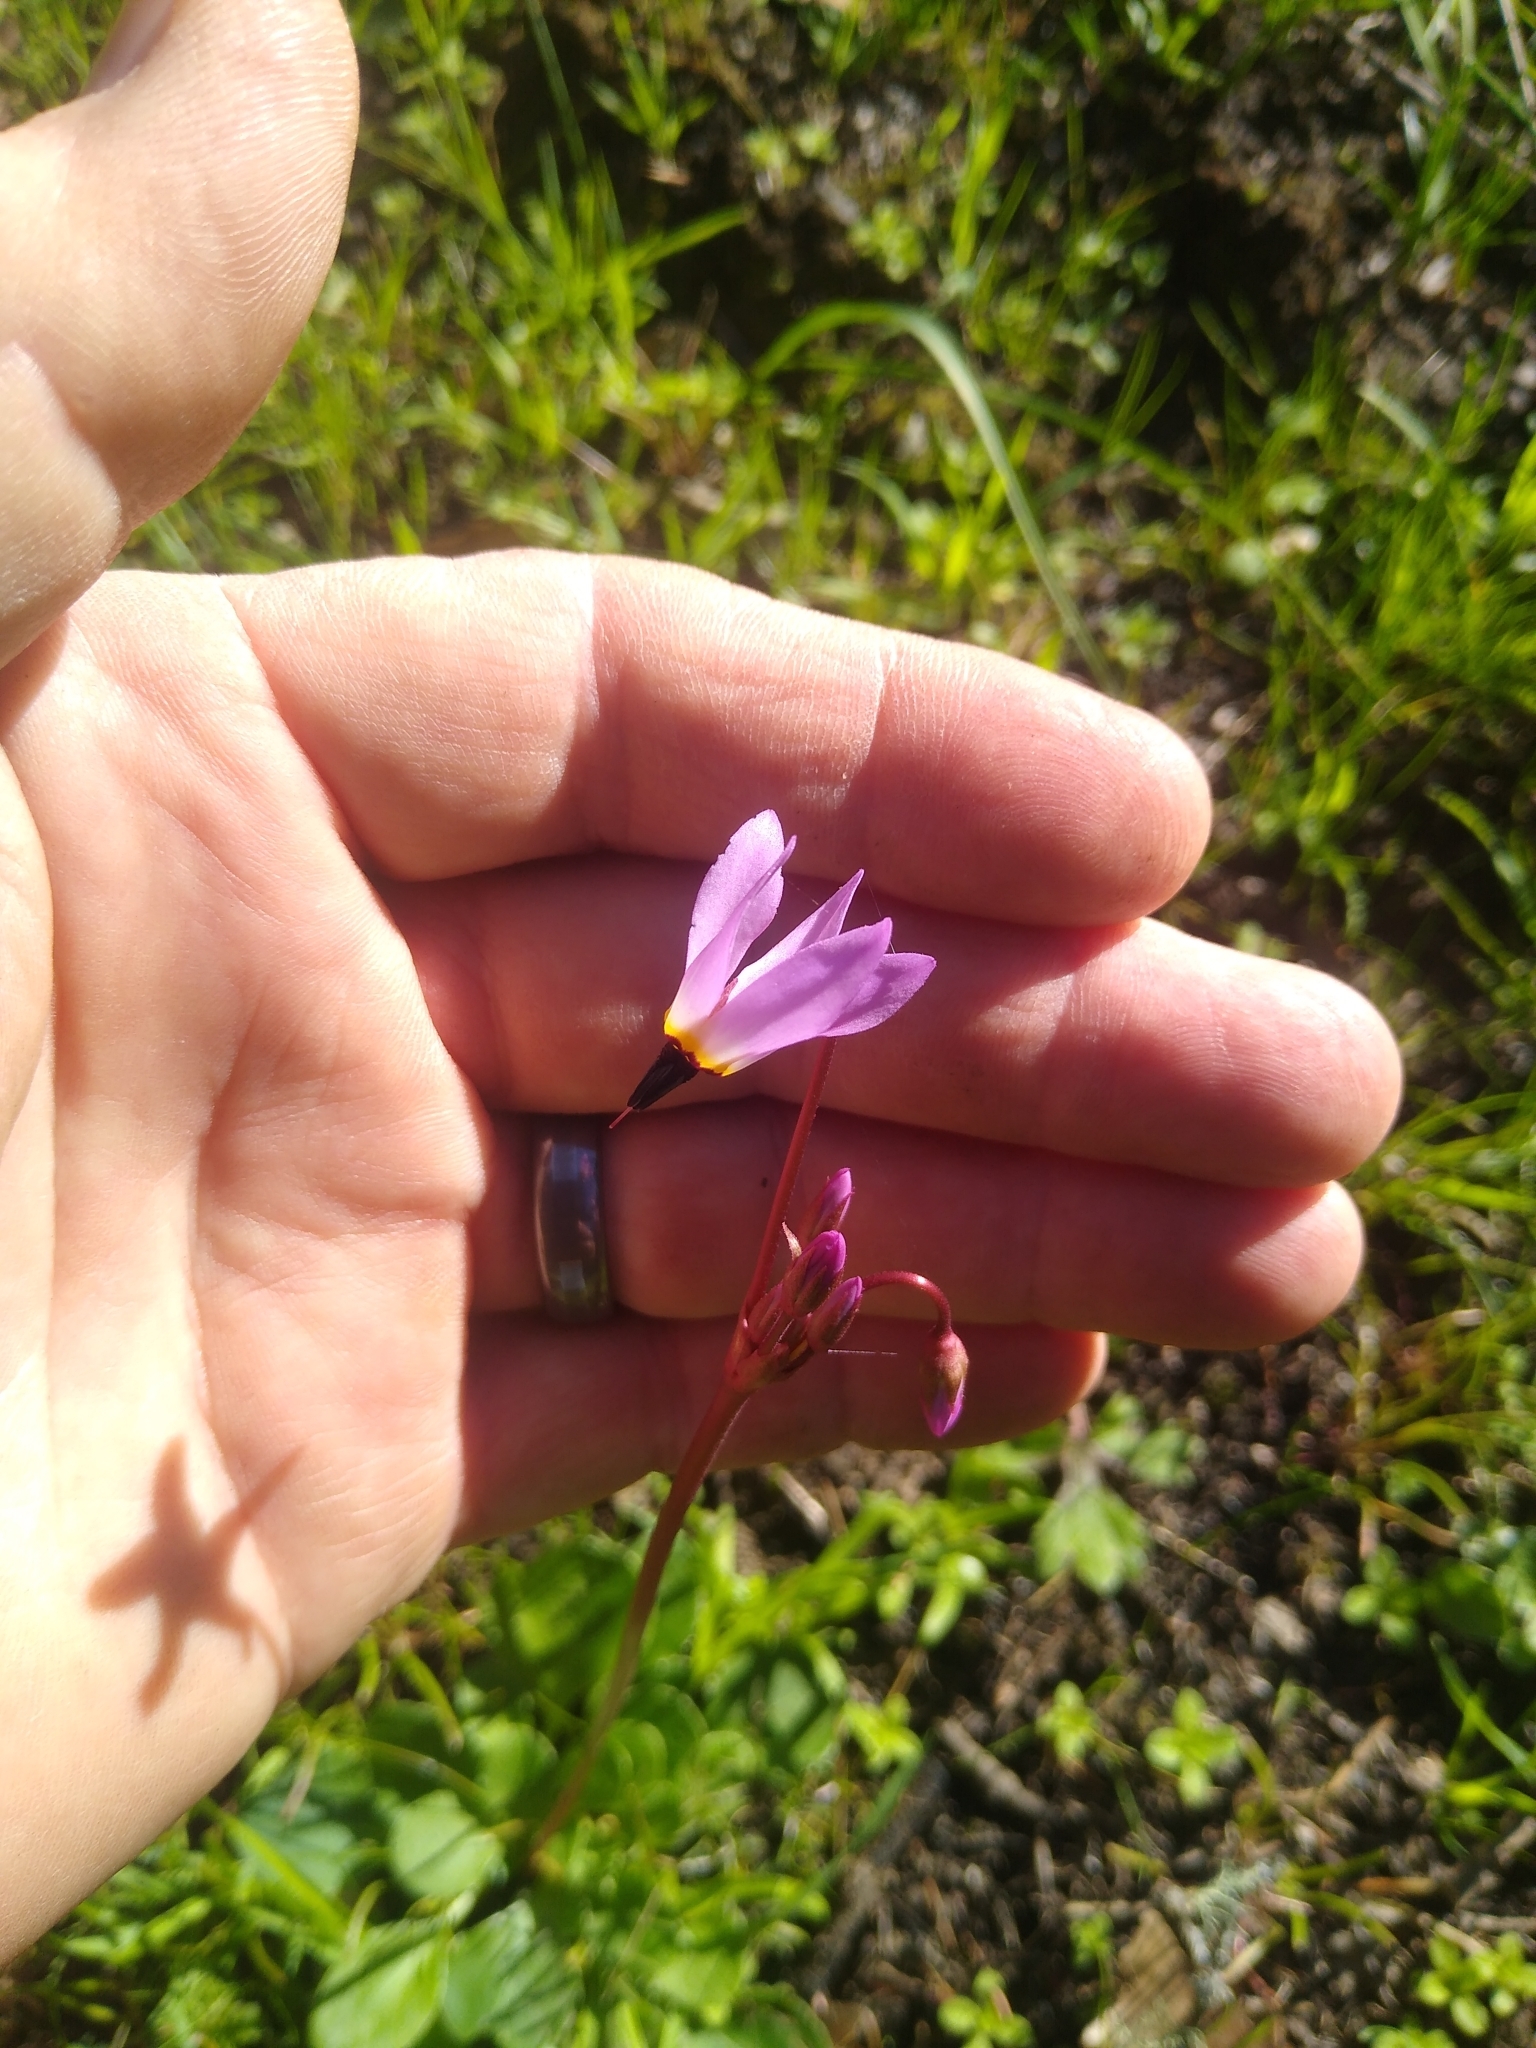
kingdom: Plantae
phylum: Tracheophyta
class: Magnoliopsida
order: Ericales
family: Primulaceae
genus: Dodecatheon
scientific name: Dodecatheon hendersonii
